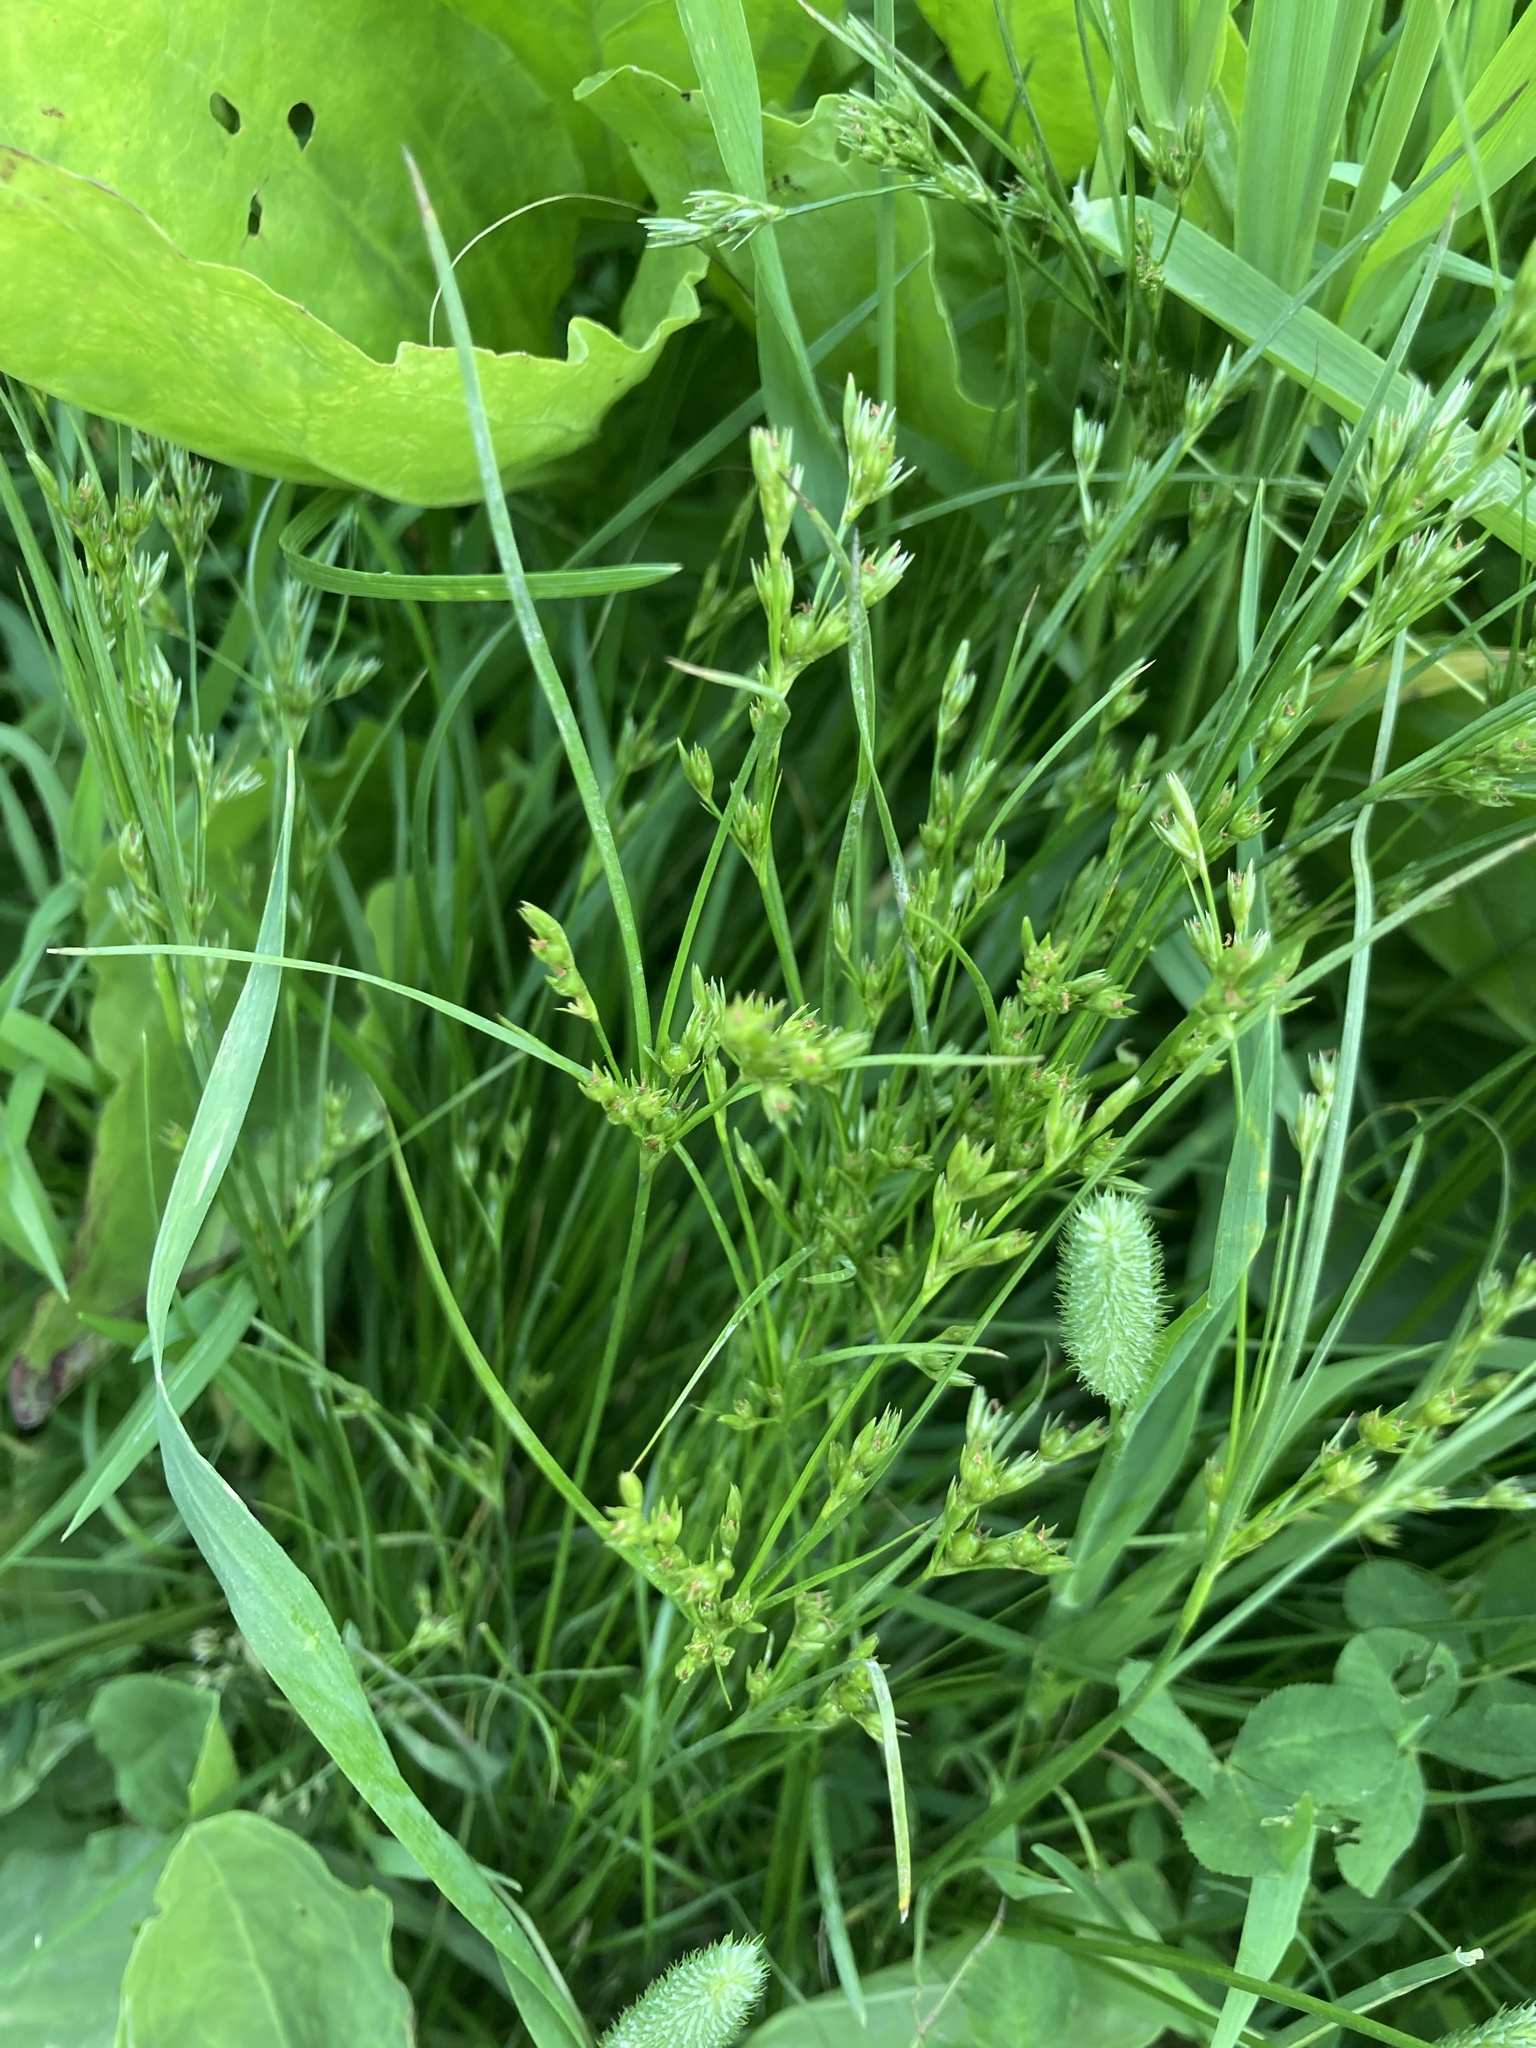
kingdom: Plantae
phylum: Tracheophyta
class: Liliopsida
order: Poales
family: Juncaceae
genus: Juncus
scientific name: Juncus tenuis
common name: Slender rush
